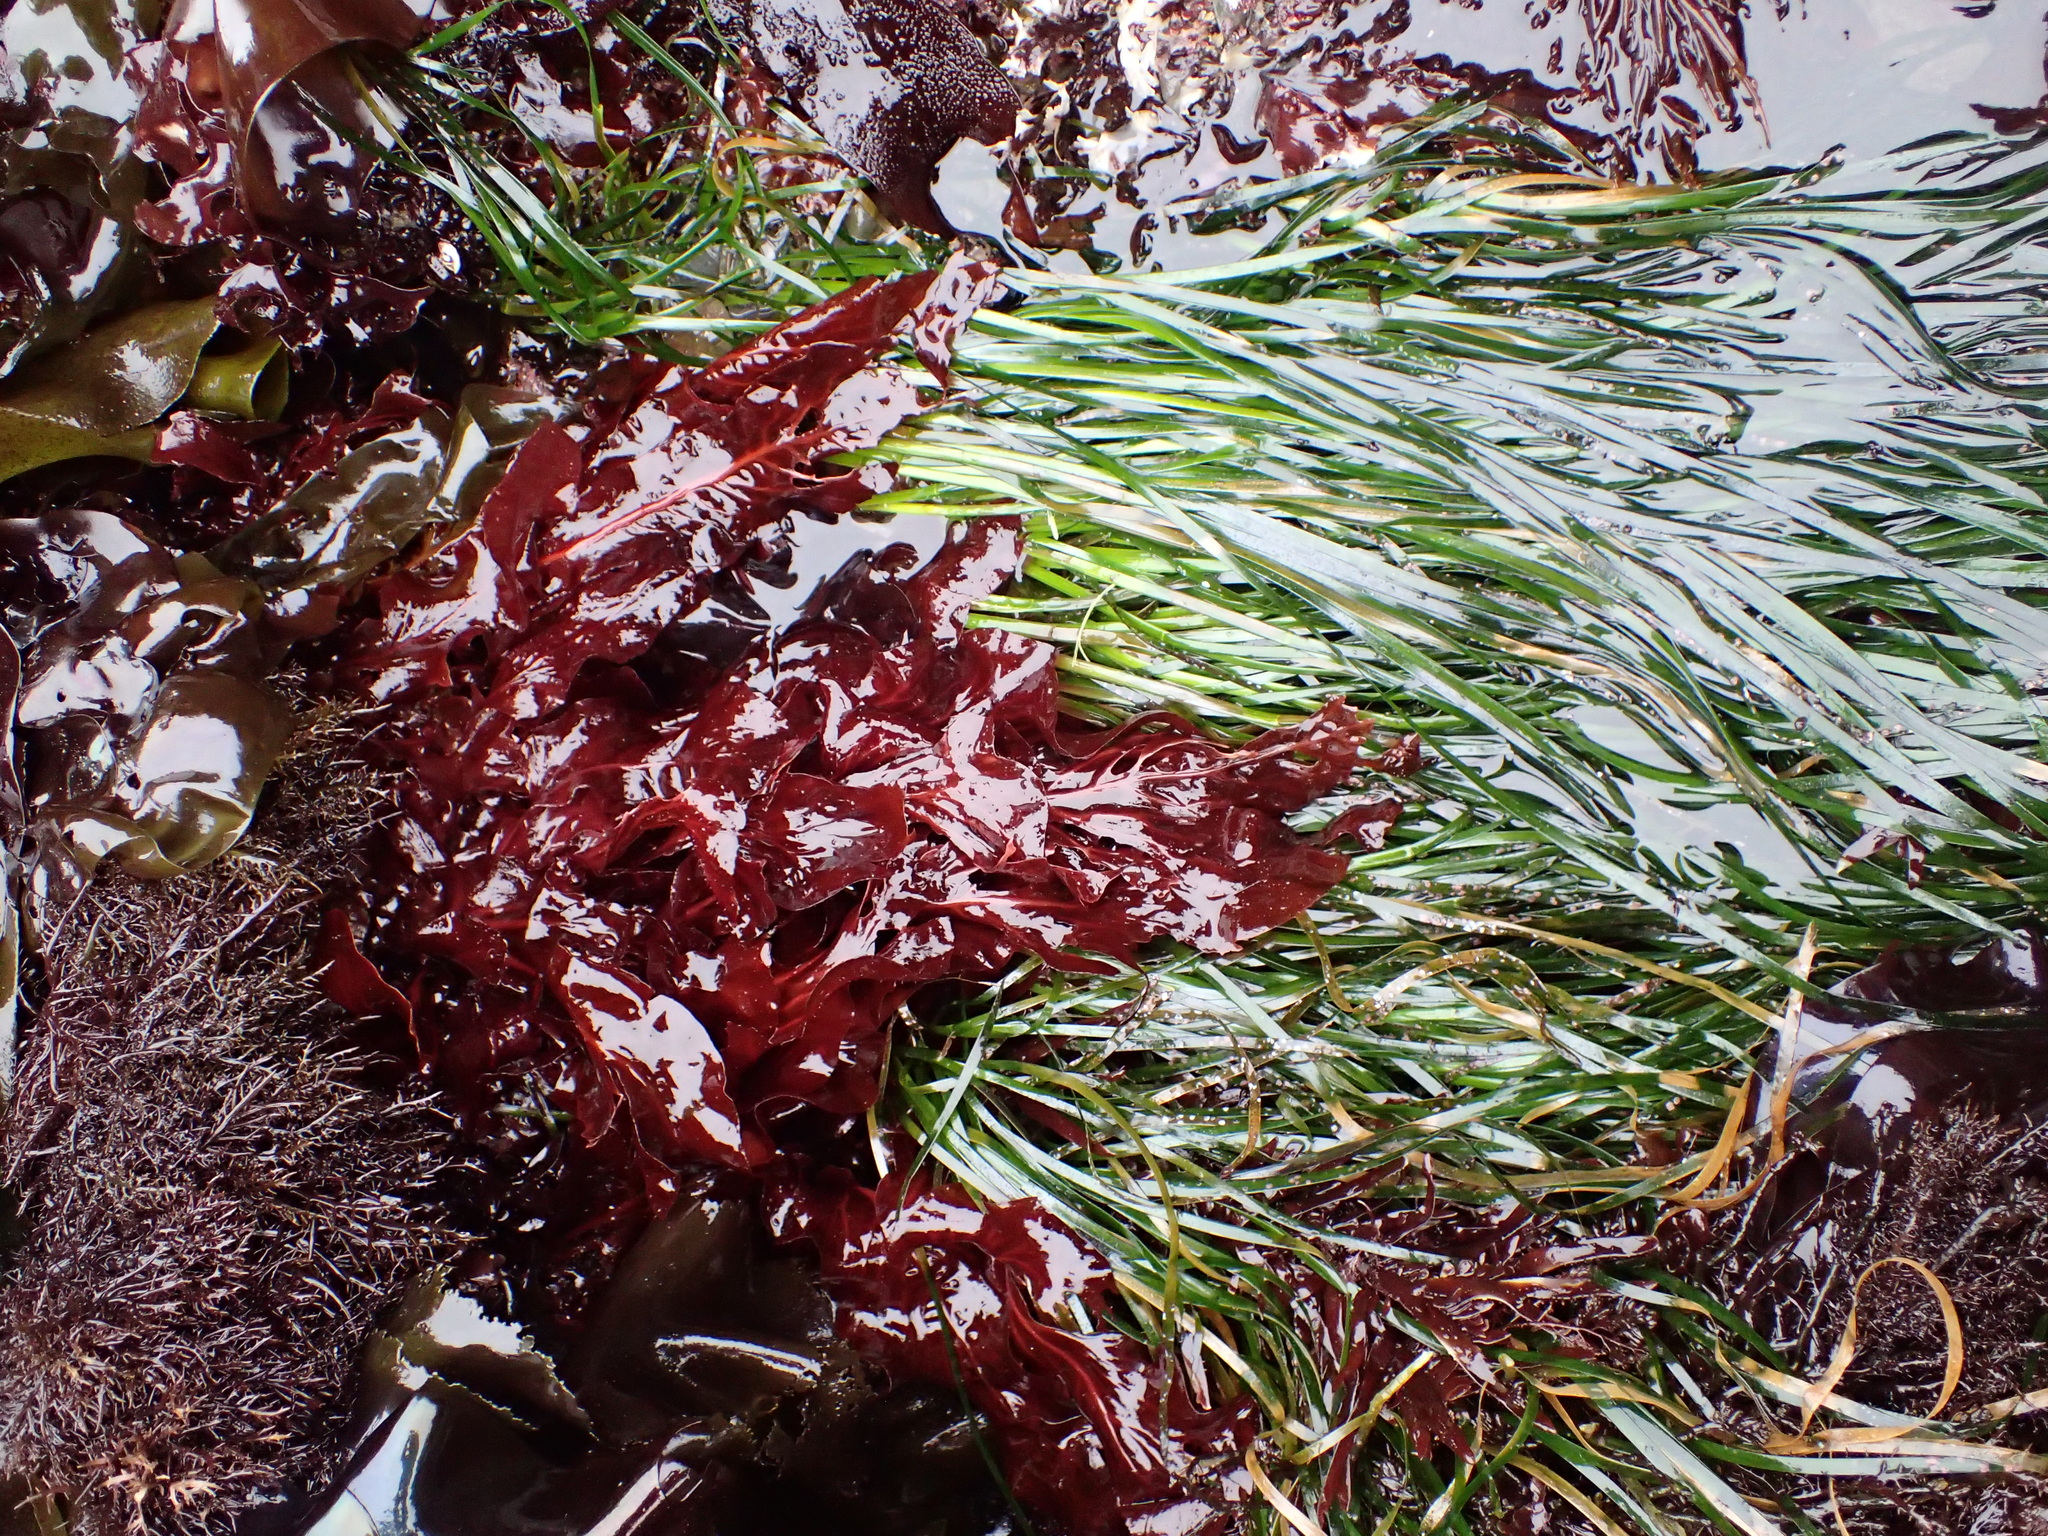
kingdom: Plantae
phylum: Tracheophyta
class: Liliopsida
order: Alismatales
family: Zosteraceae
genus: Phyllospadix
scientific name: Phyllospadix scouleri
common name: Species code: ps
